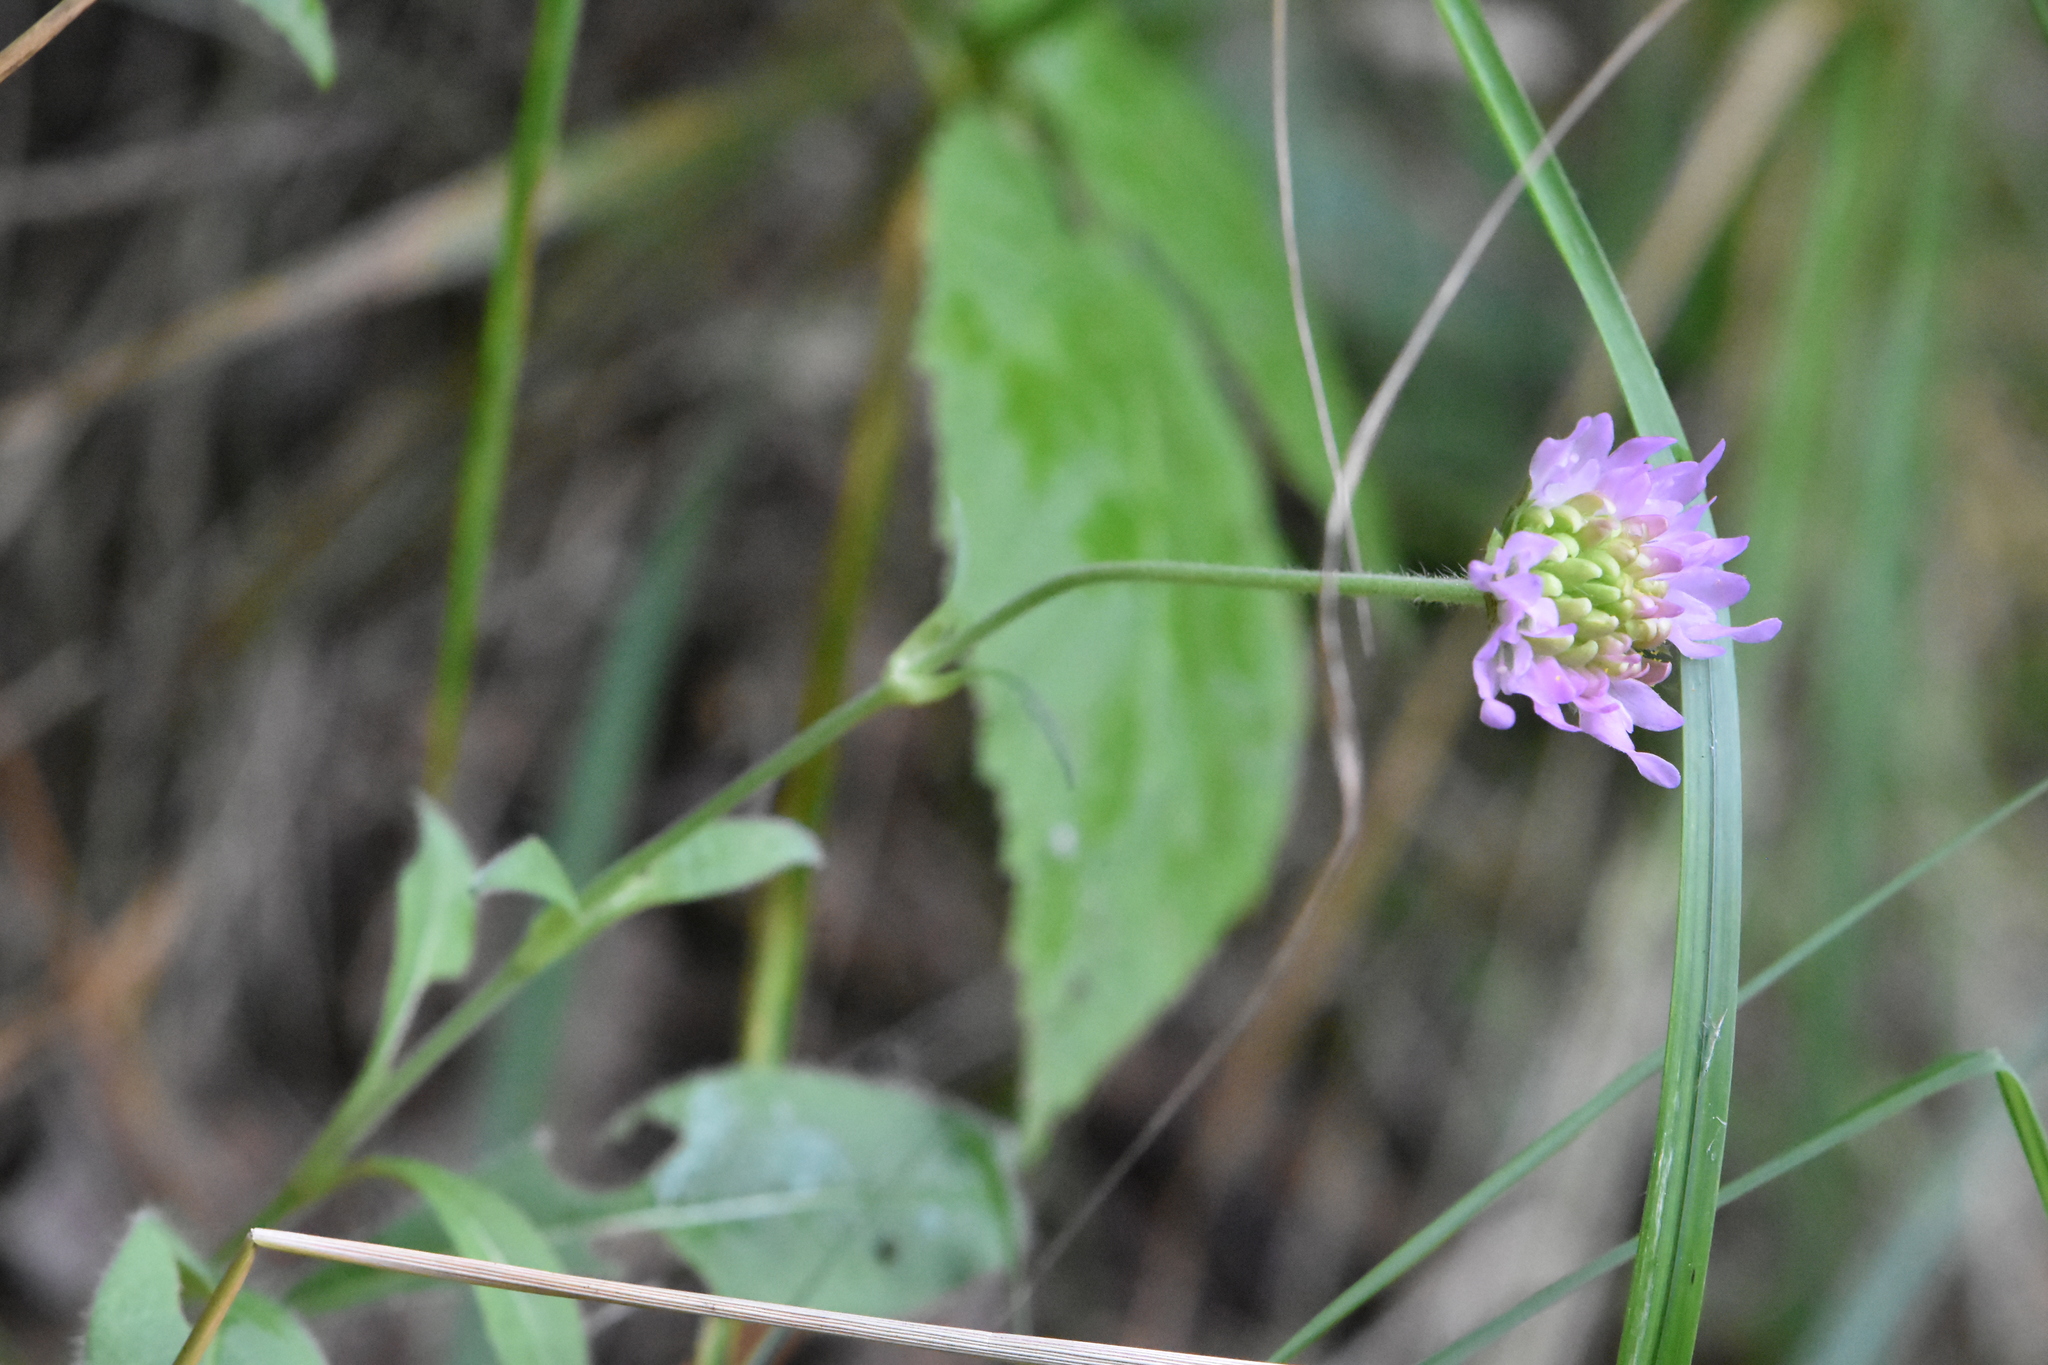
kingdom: Plantae
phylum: Tracheophyta
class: Magnoliopsida
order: Dipsacales
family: Caprifoliaceae
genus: Knautia
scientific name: Knautia arvensis
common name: Field scabiosa
